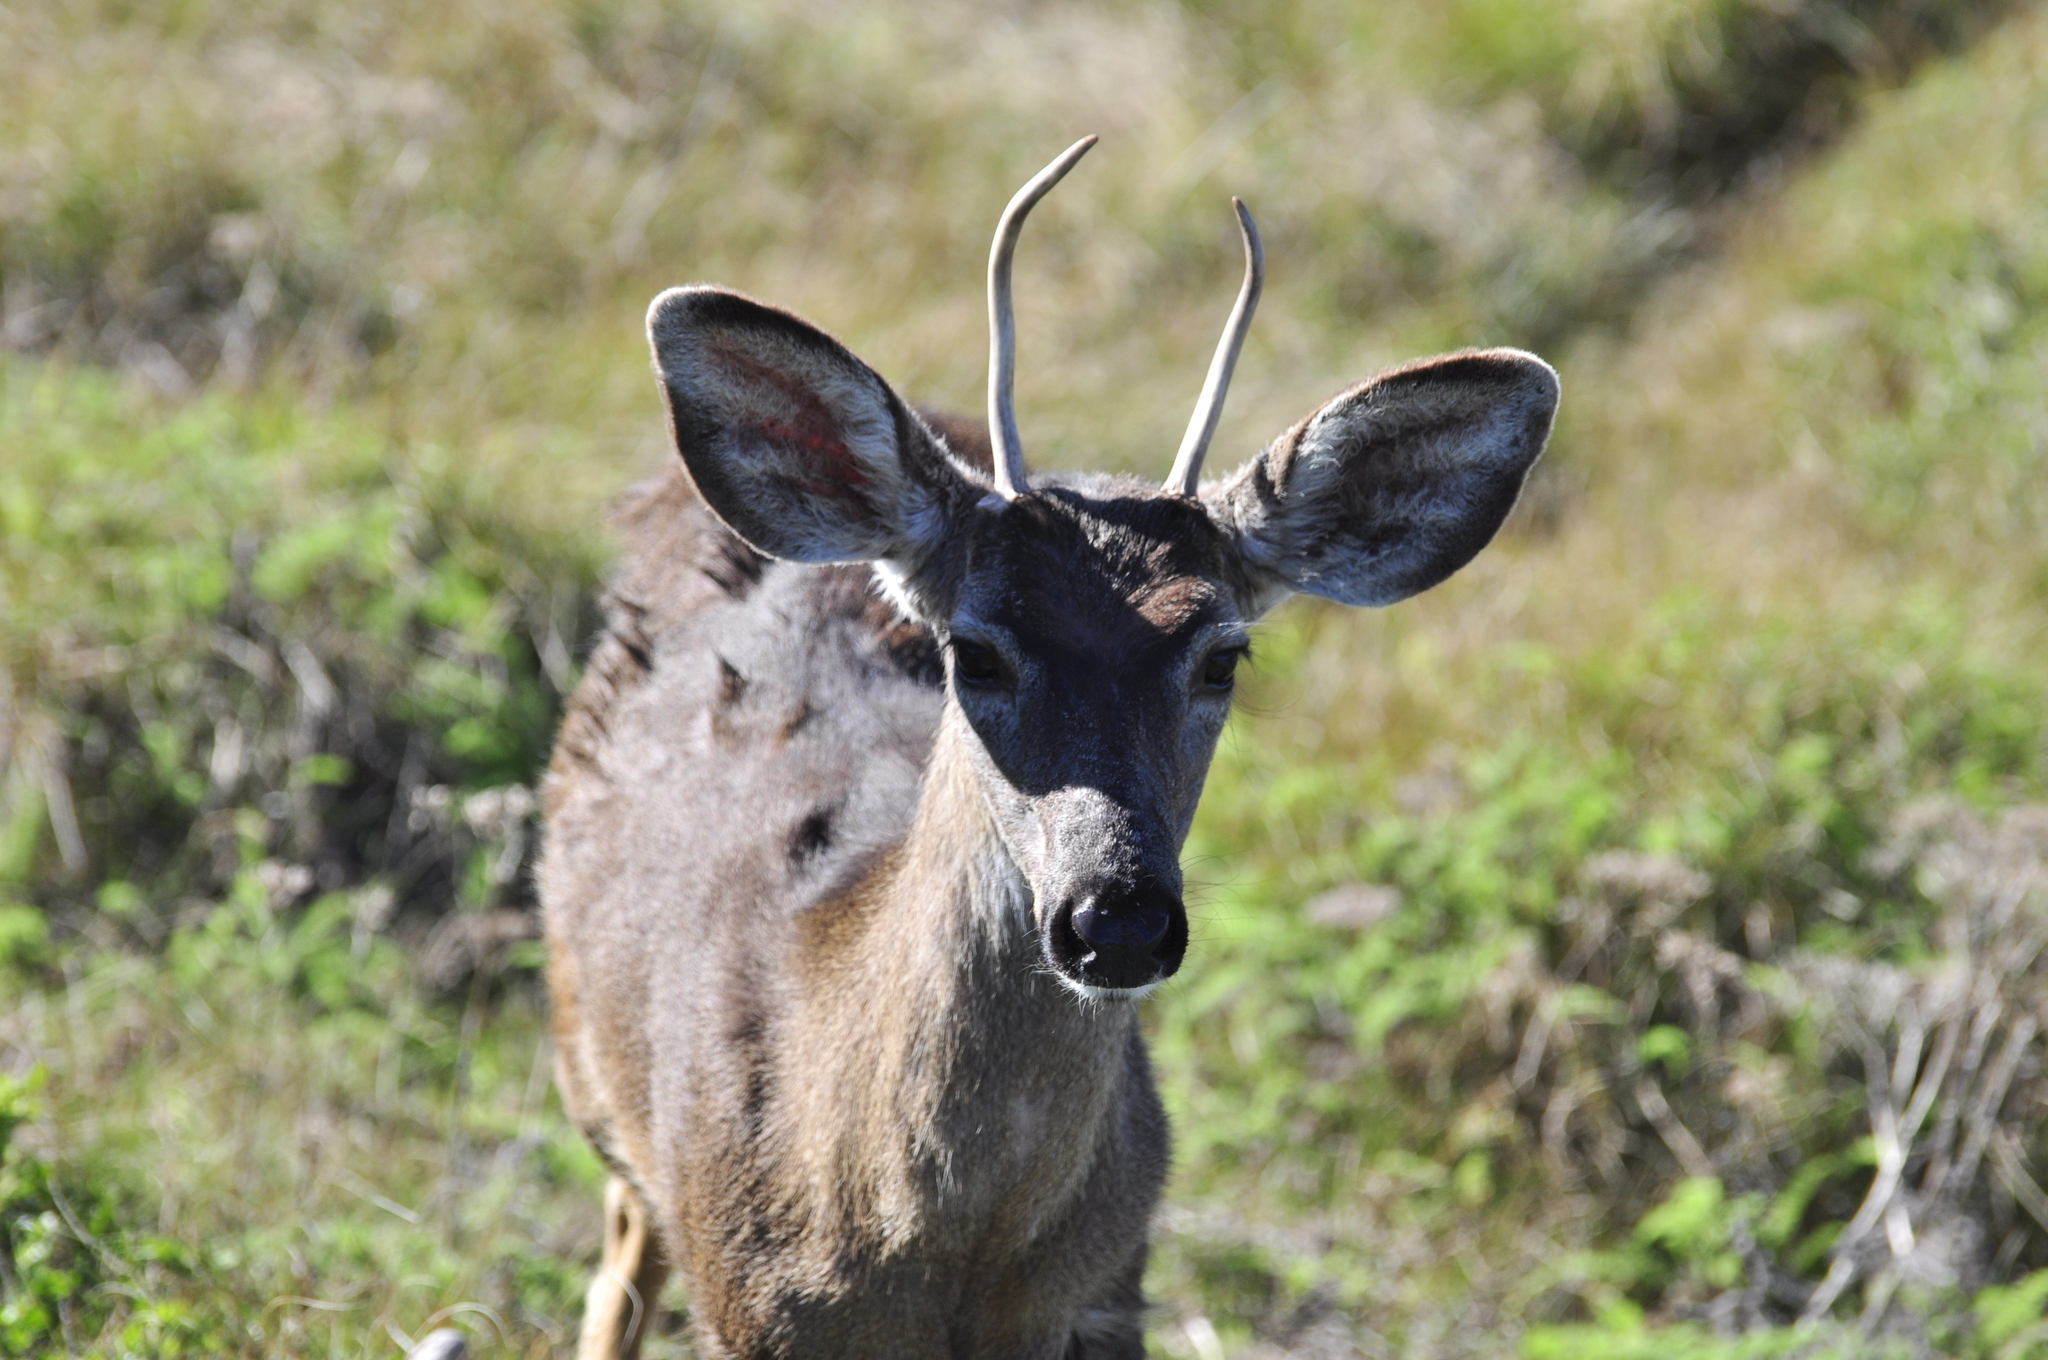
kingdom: Animalia
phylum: Chordata
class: Mammalia
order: Artiodactyla
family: Cervidae
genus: Odocoileus
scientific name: Odocoileus hemionus
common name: Mule deer
